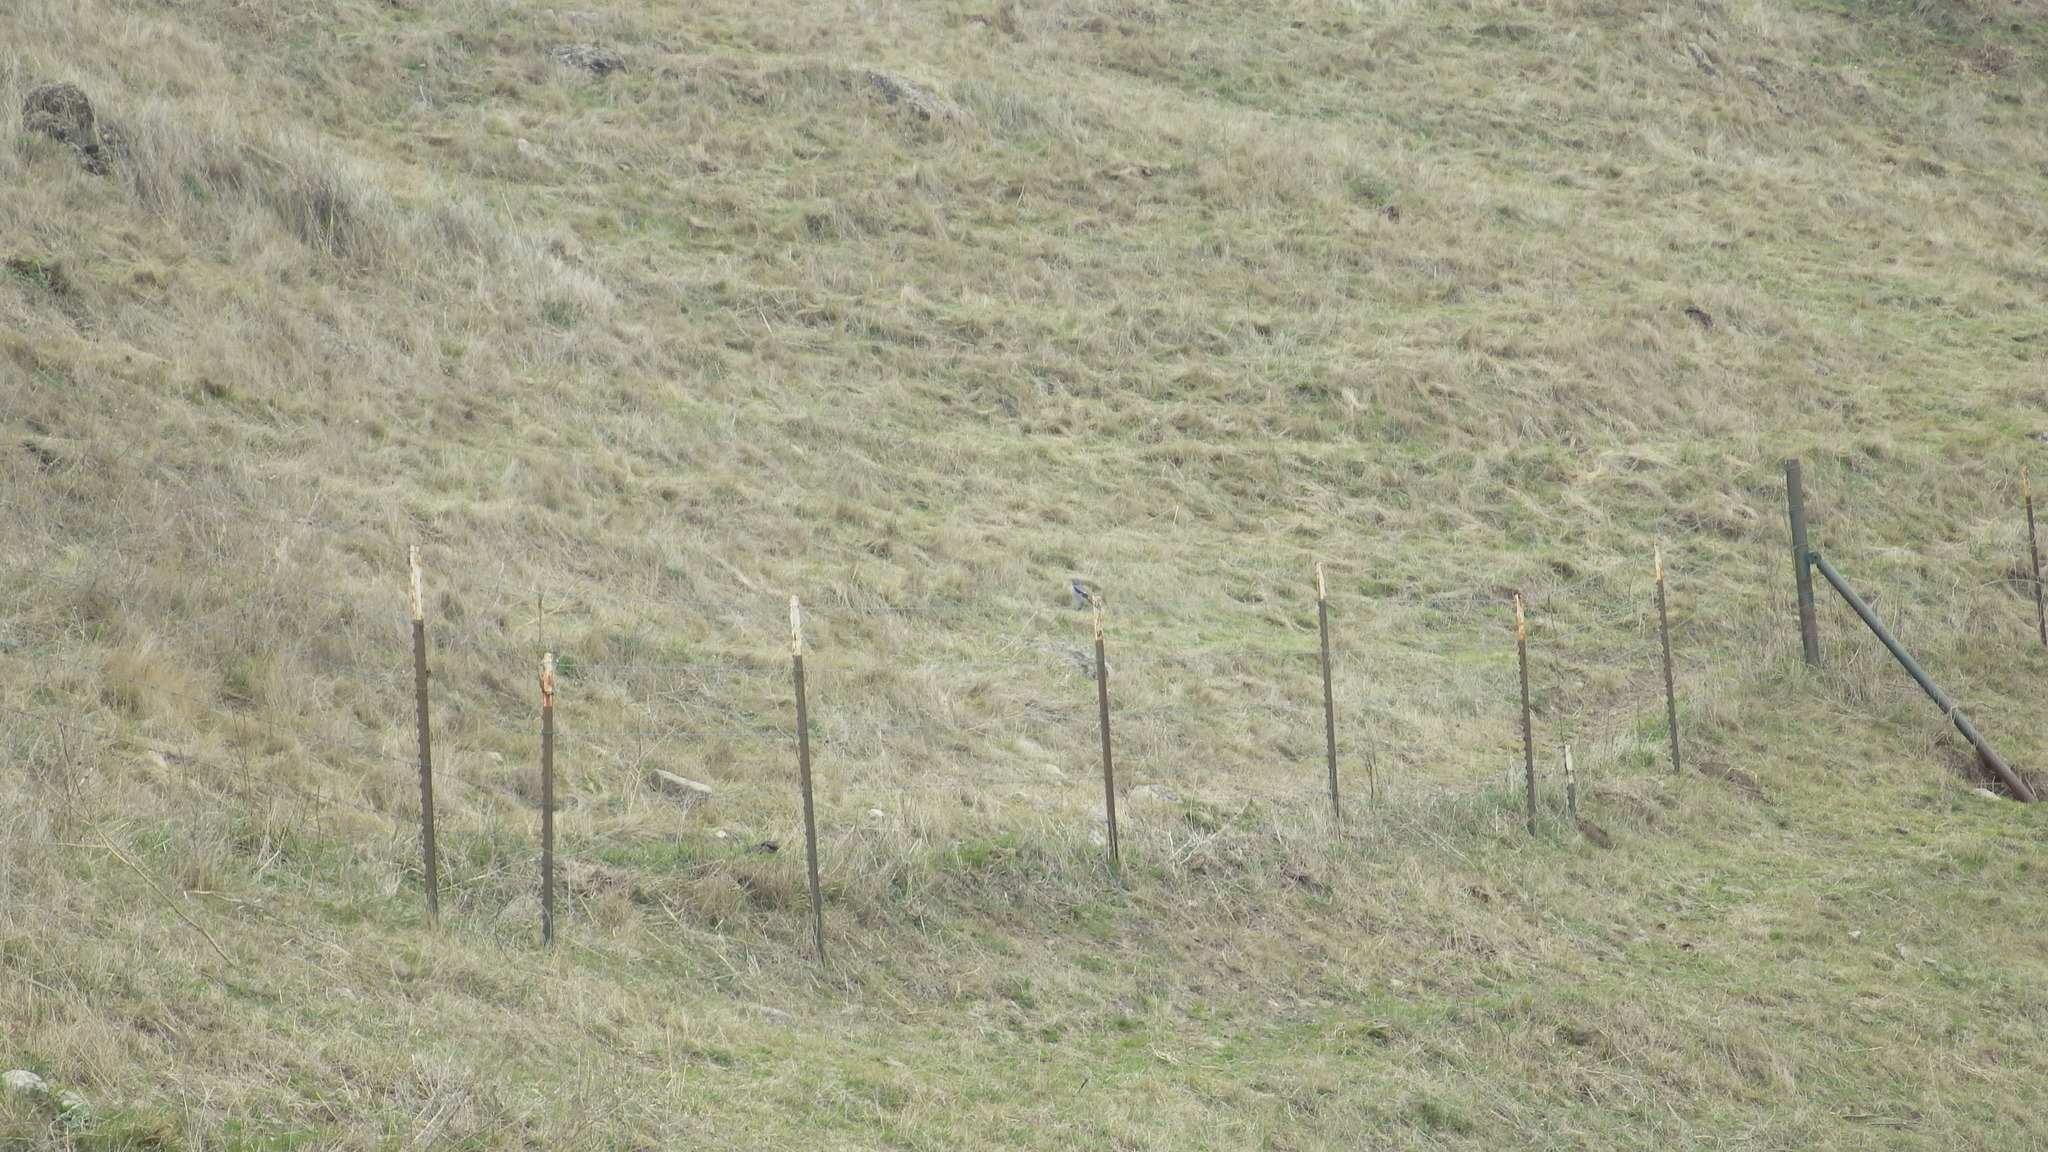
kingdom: Animalia
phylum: Chordata
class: Aves
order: Passeriformes
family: Laniidae
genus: Lanius
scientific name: Lanius ludovicianus
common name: Loggerhead shrike
